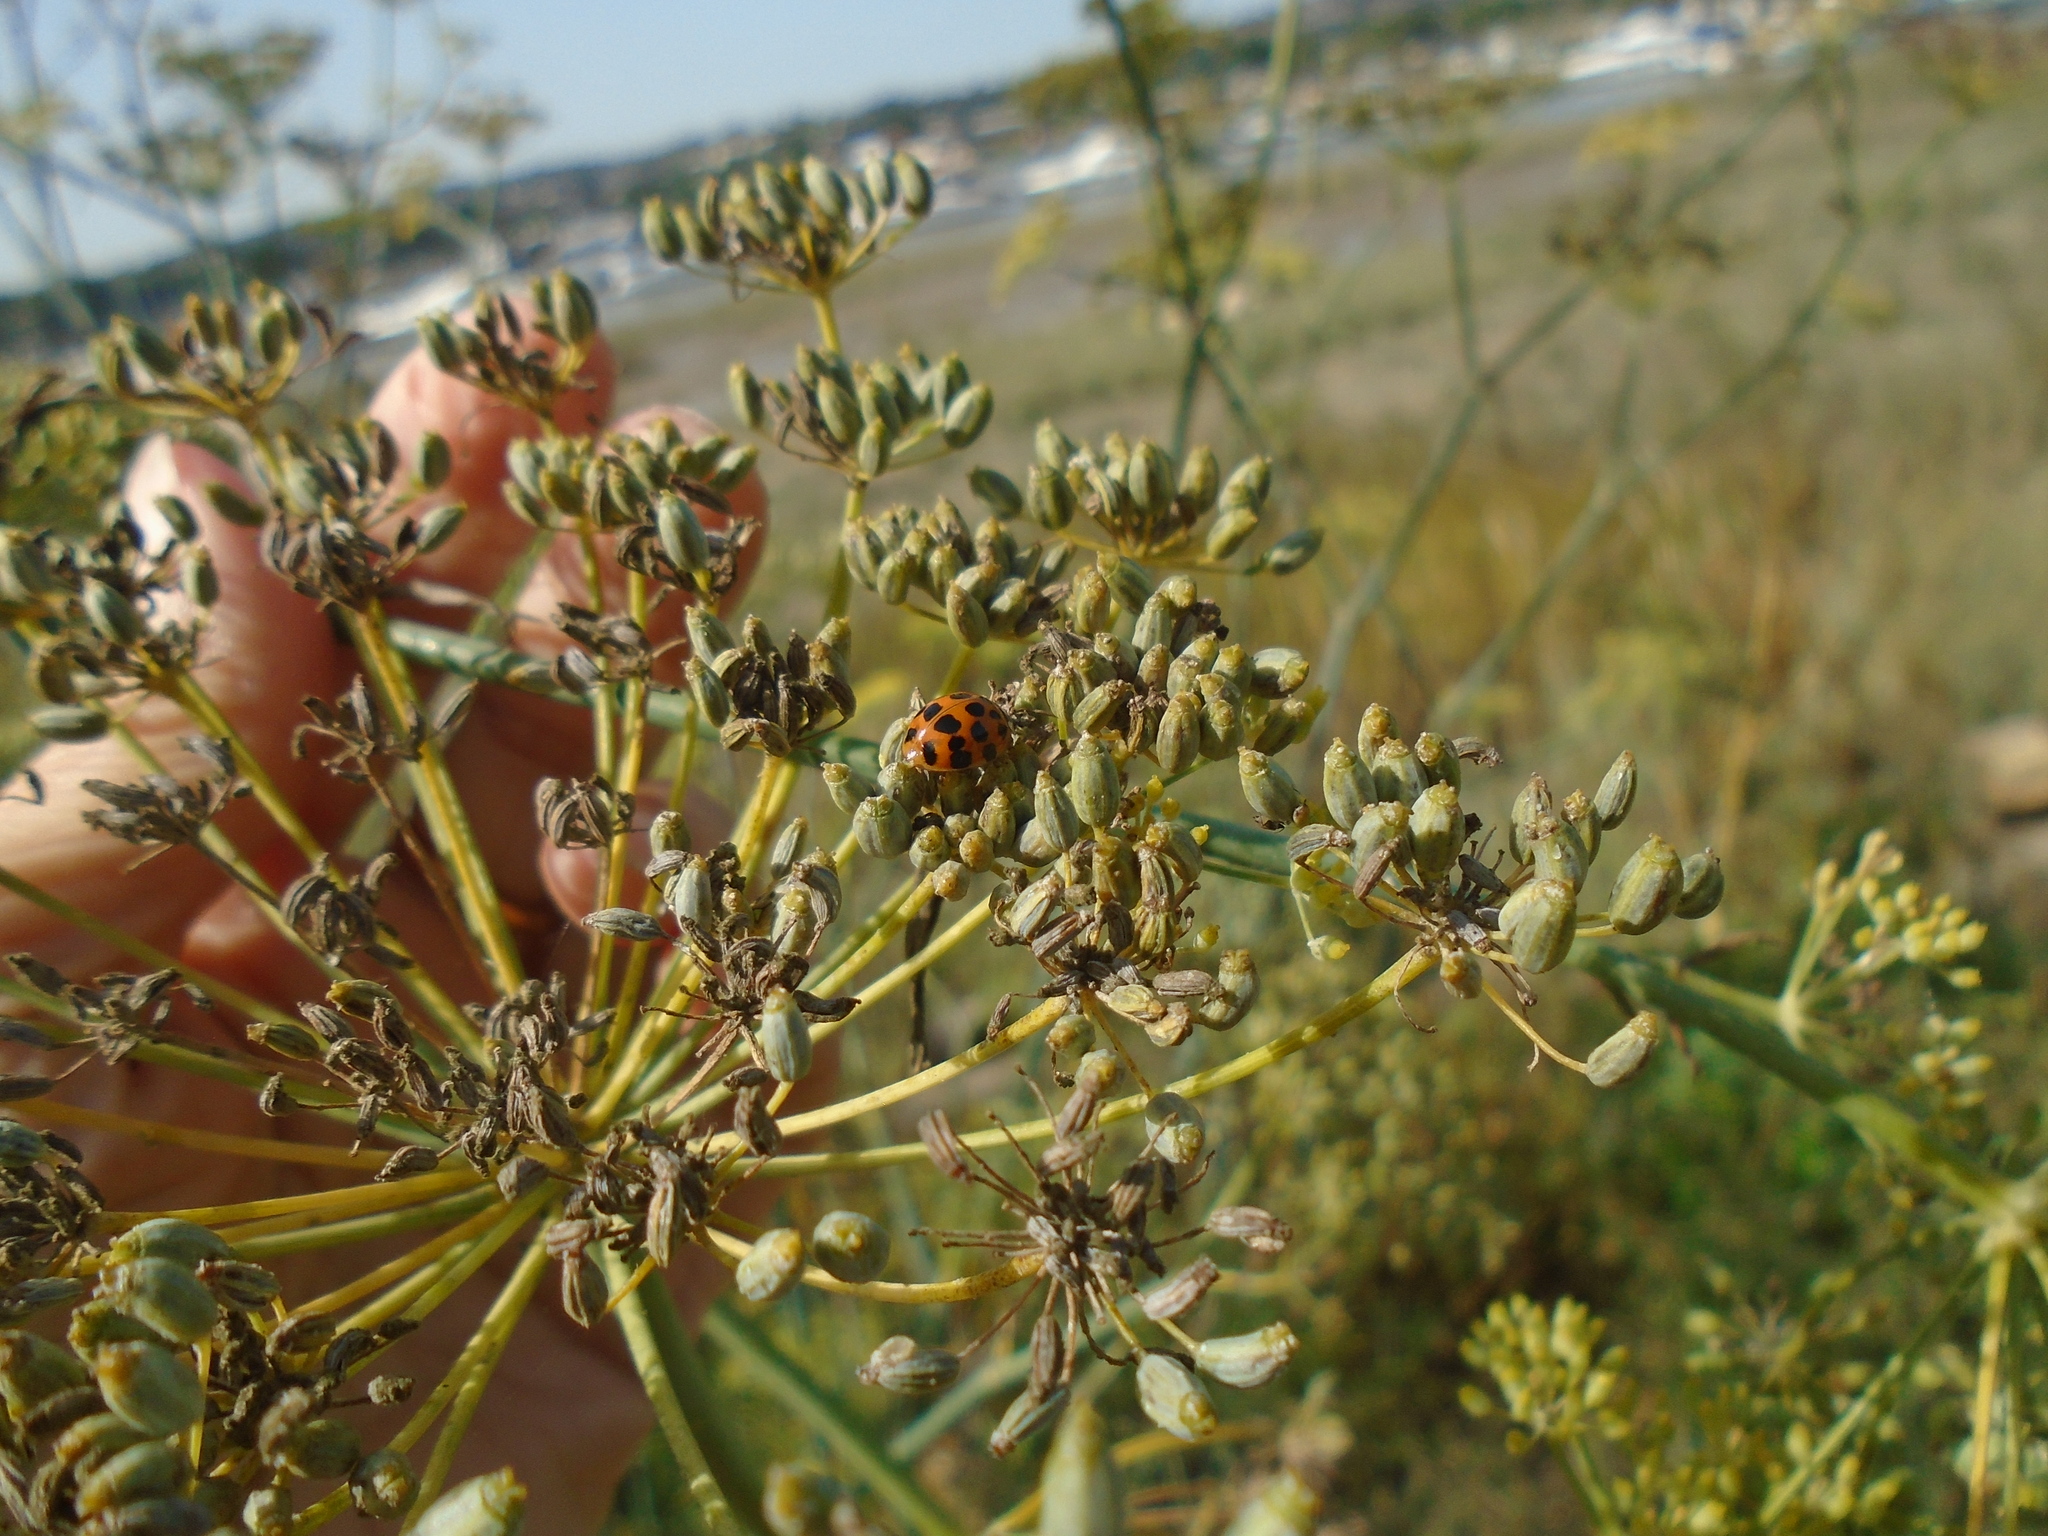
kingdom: Animalia
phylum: Arthropoda
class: Insecta
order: Coleoptera
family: Coccinellidae
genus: Harmonia
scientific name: Harmonia axyridis
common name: Harlequin ladybird
